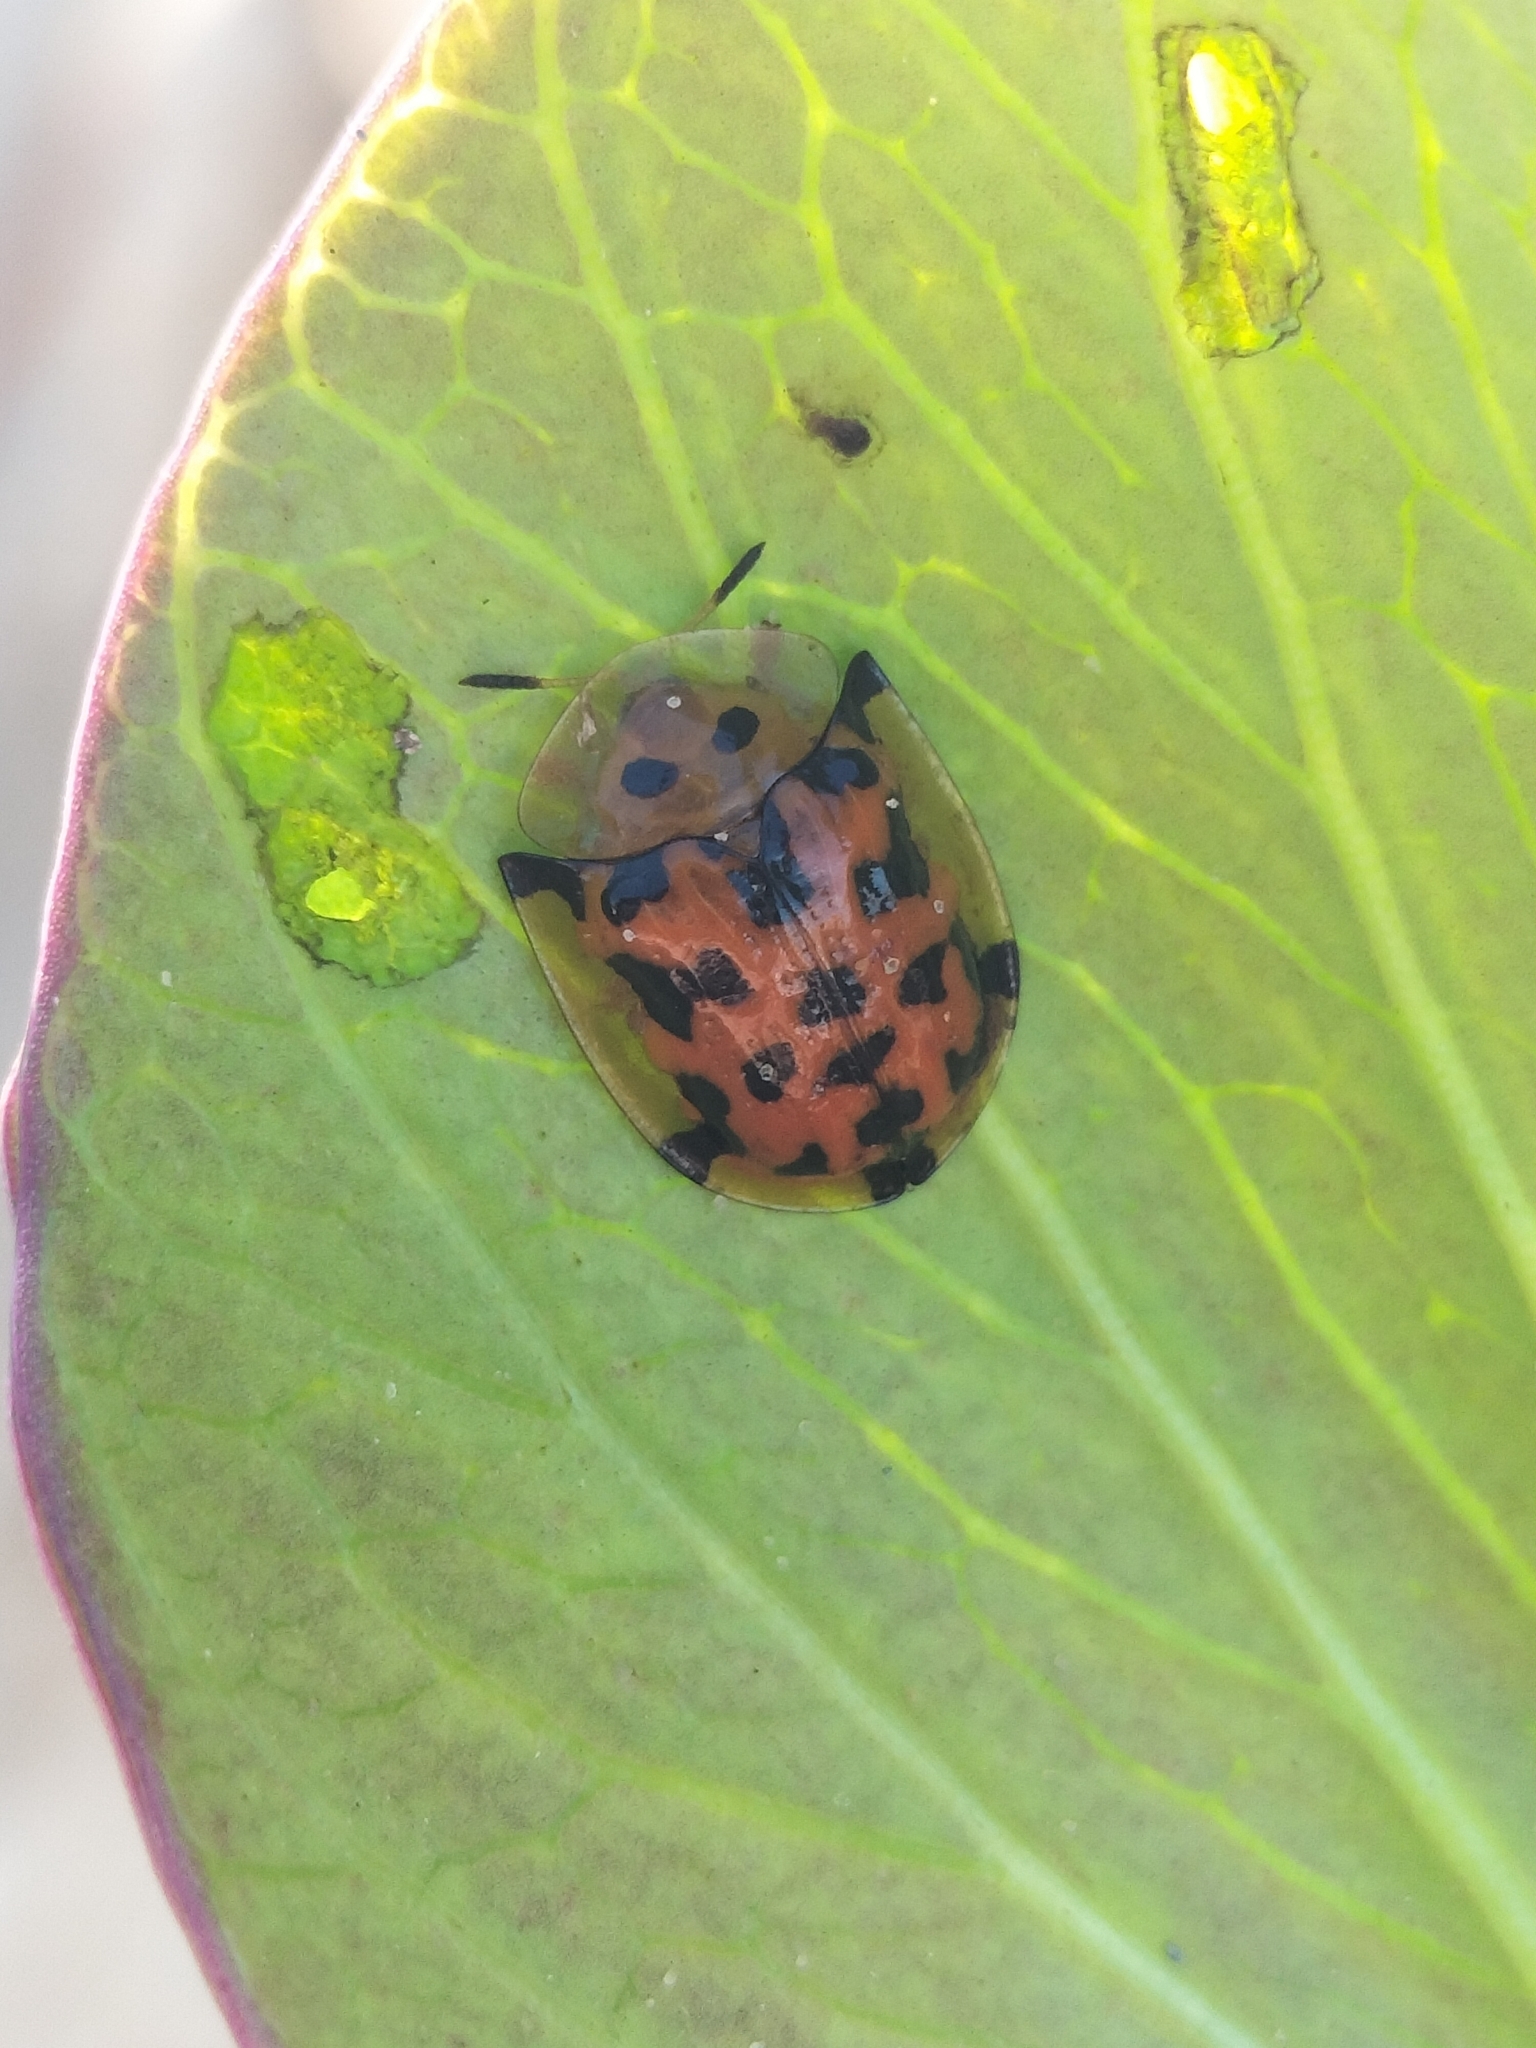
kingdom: Animalia
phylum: Arthropoda
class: Insecta
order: Coleoptera
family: Chrysomelidae
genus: Aspidimorpha
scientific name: Aspidimorpha deusta
